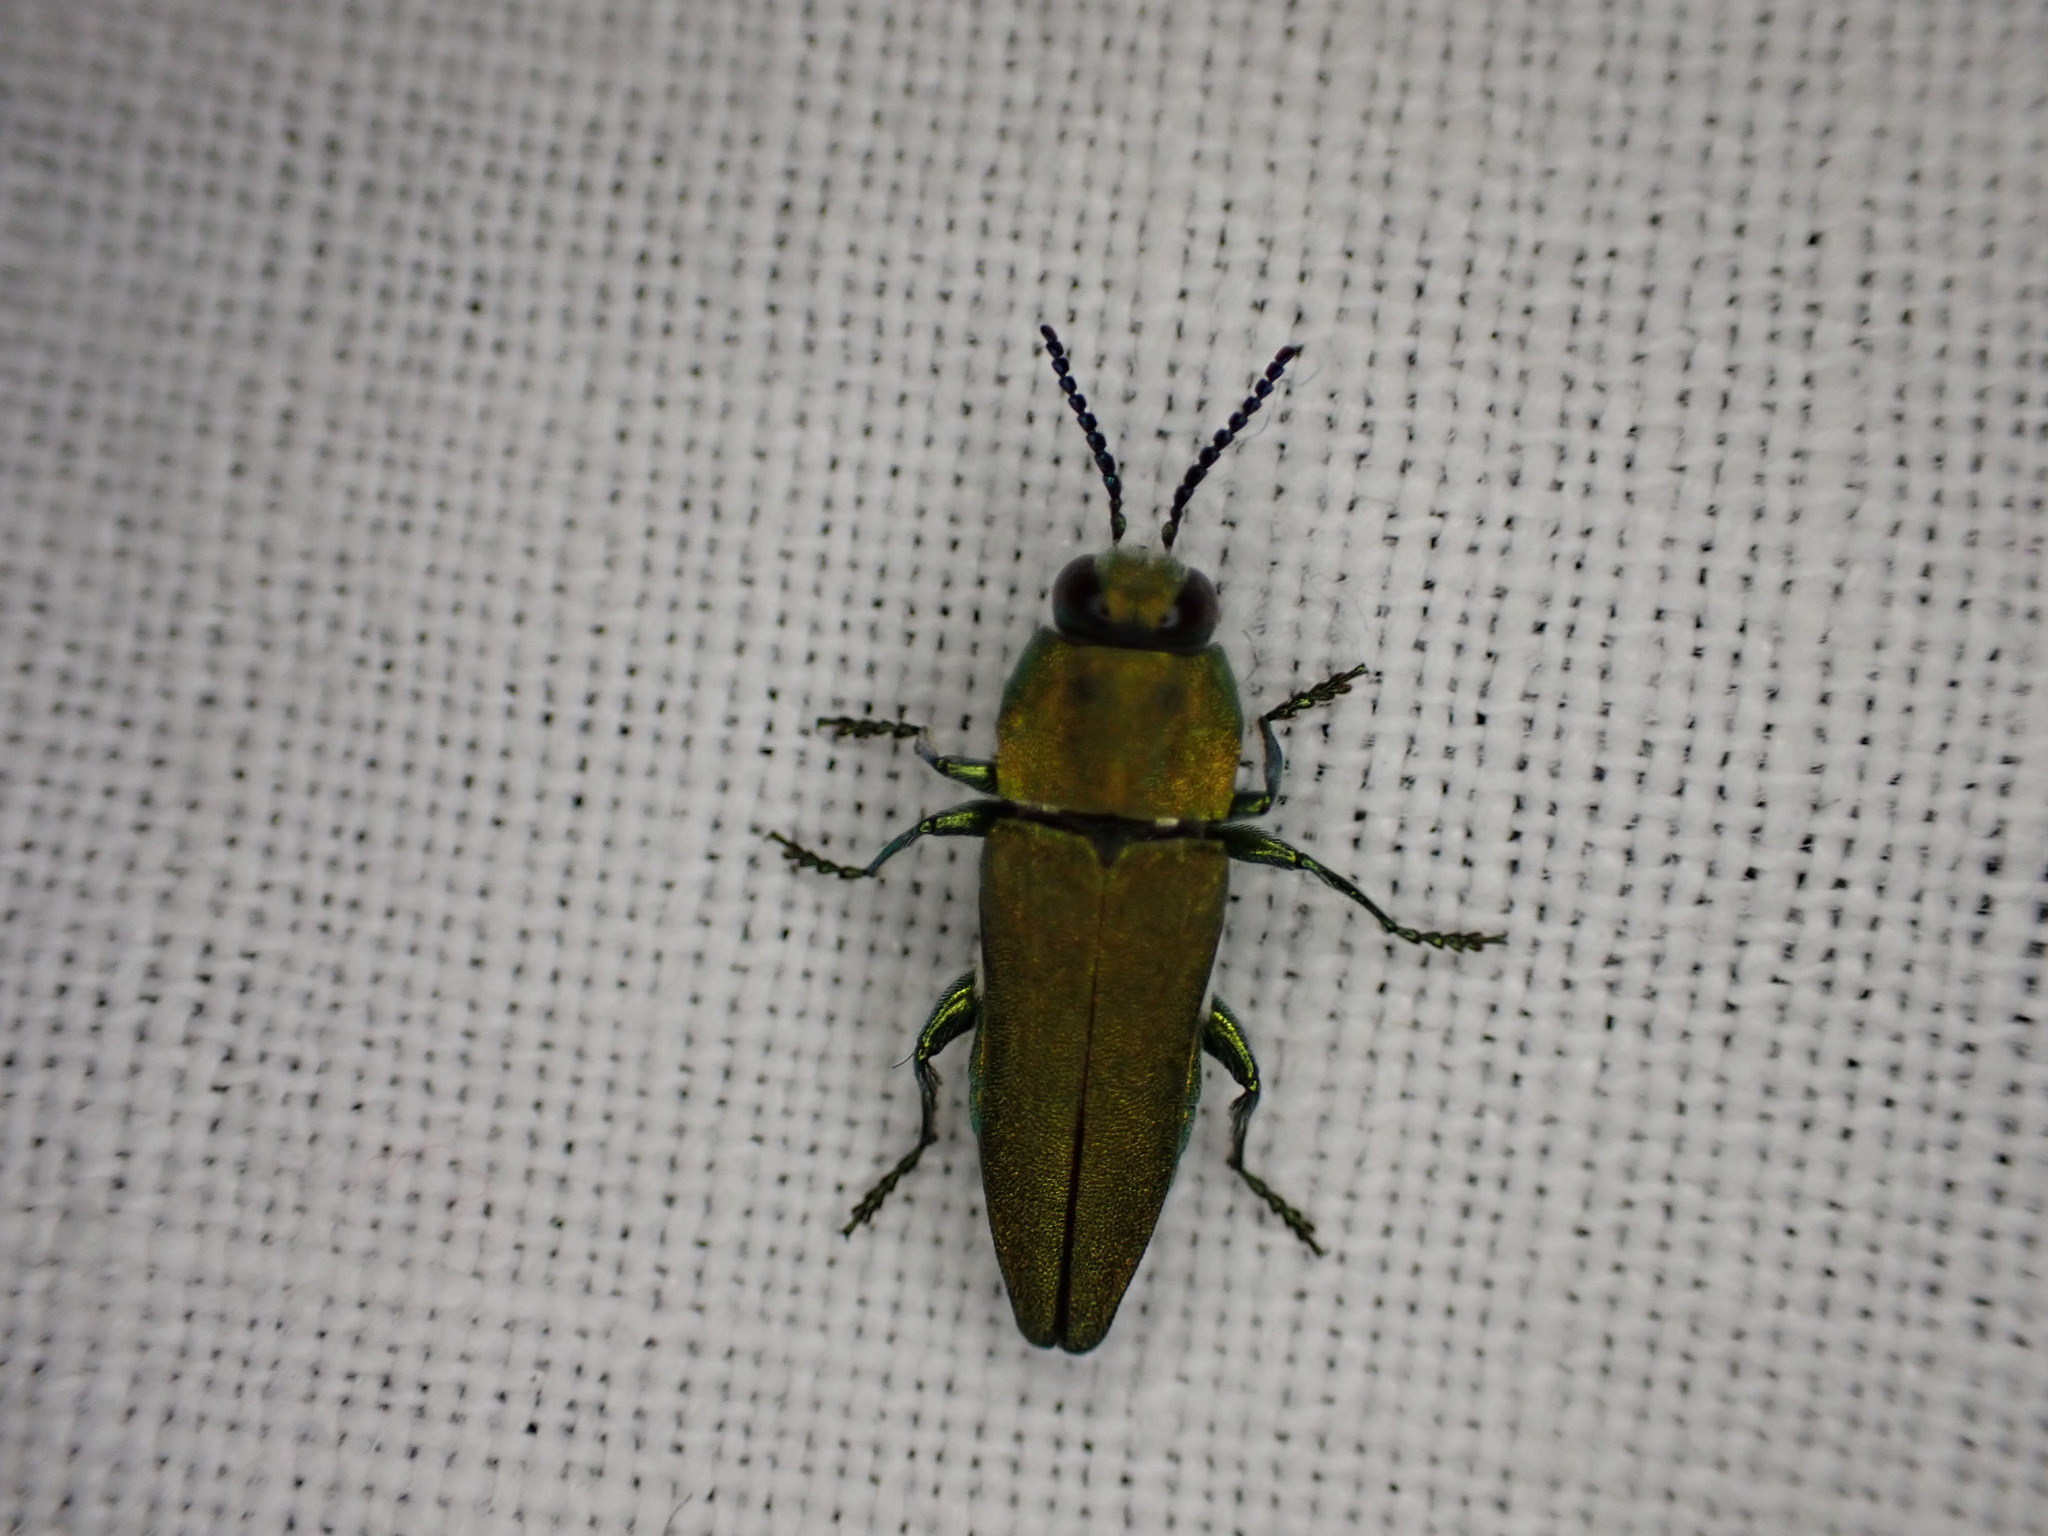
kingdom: Animalia
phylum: Arthropoda
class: Insecta
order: Coleoptera
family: Buprestidae
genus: Anthaxia
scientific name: Anthaxia hungarica
